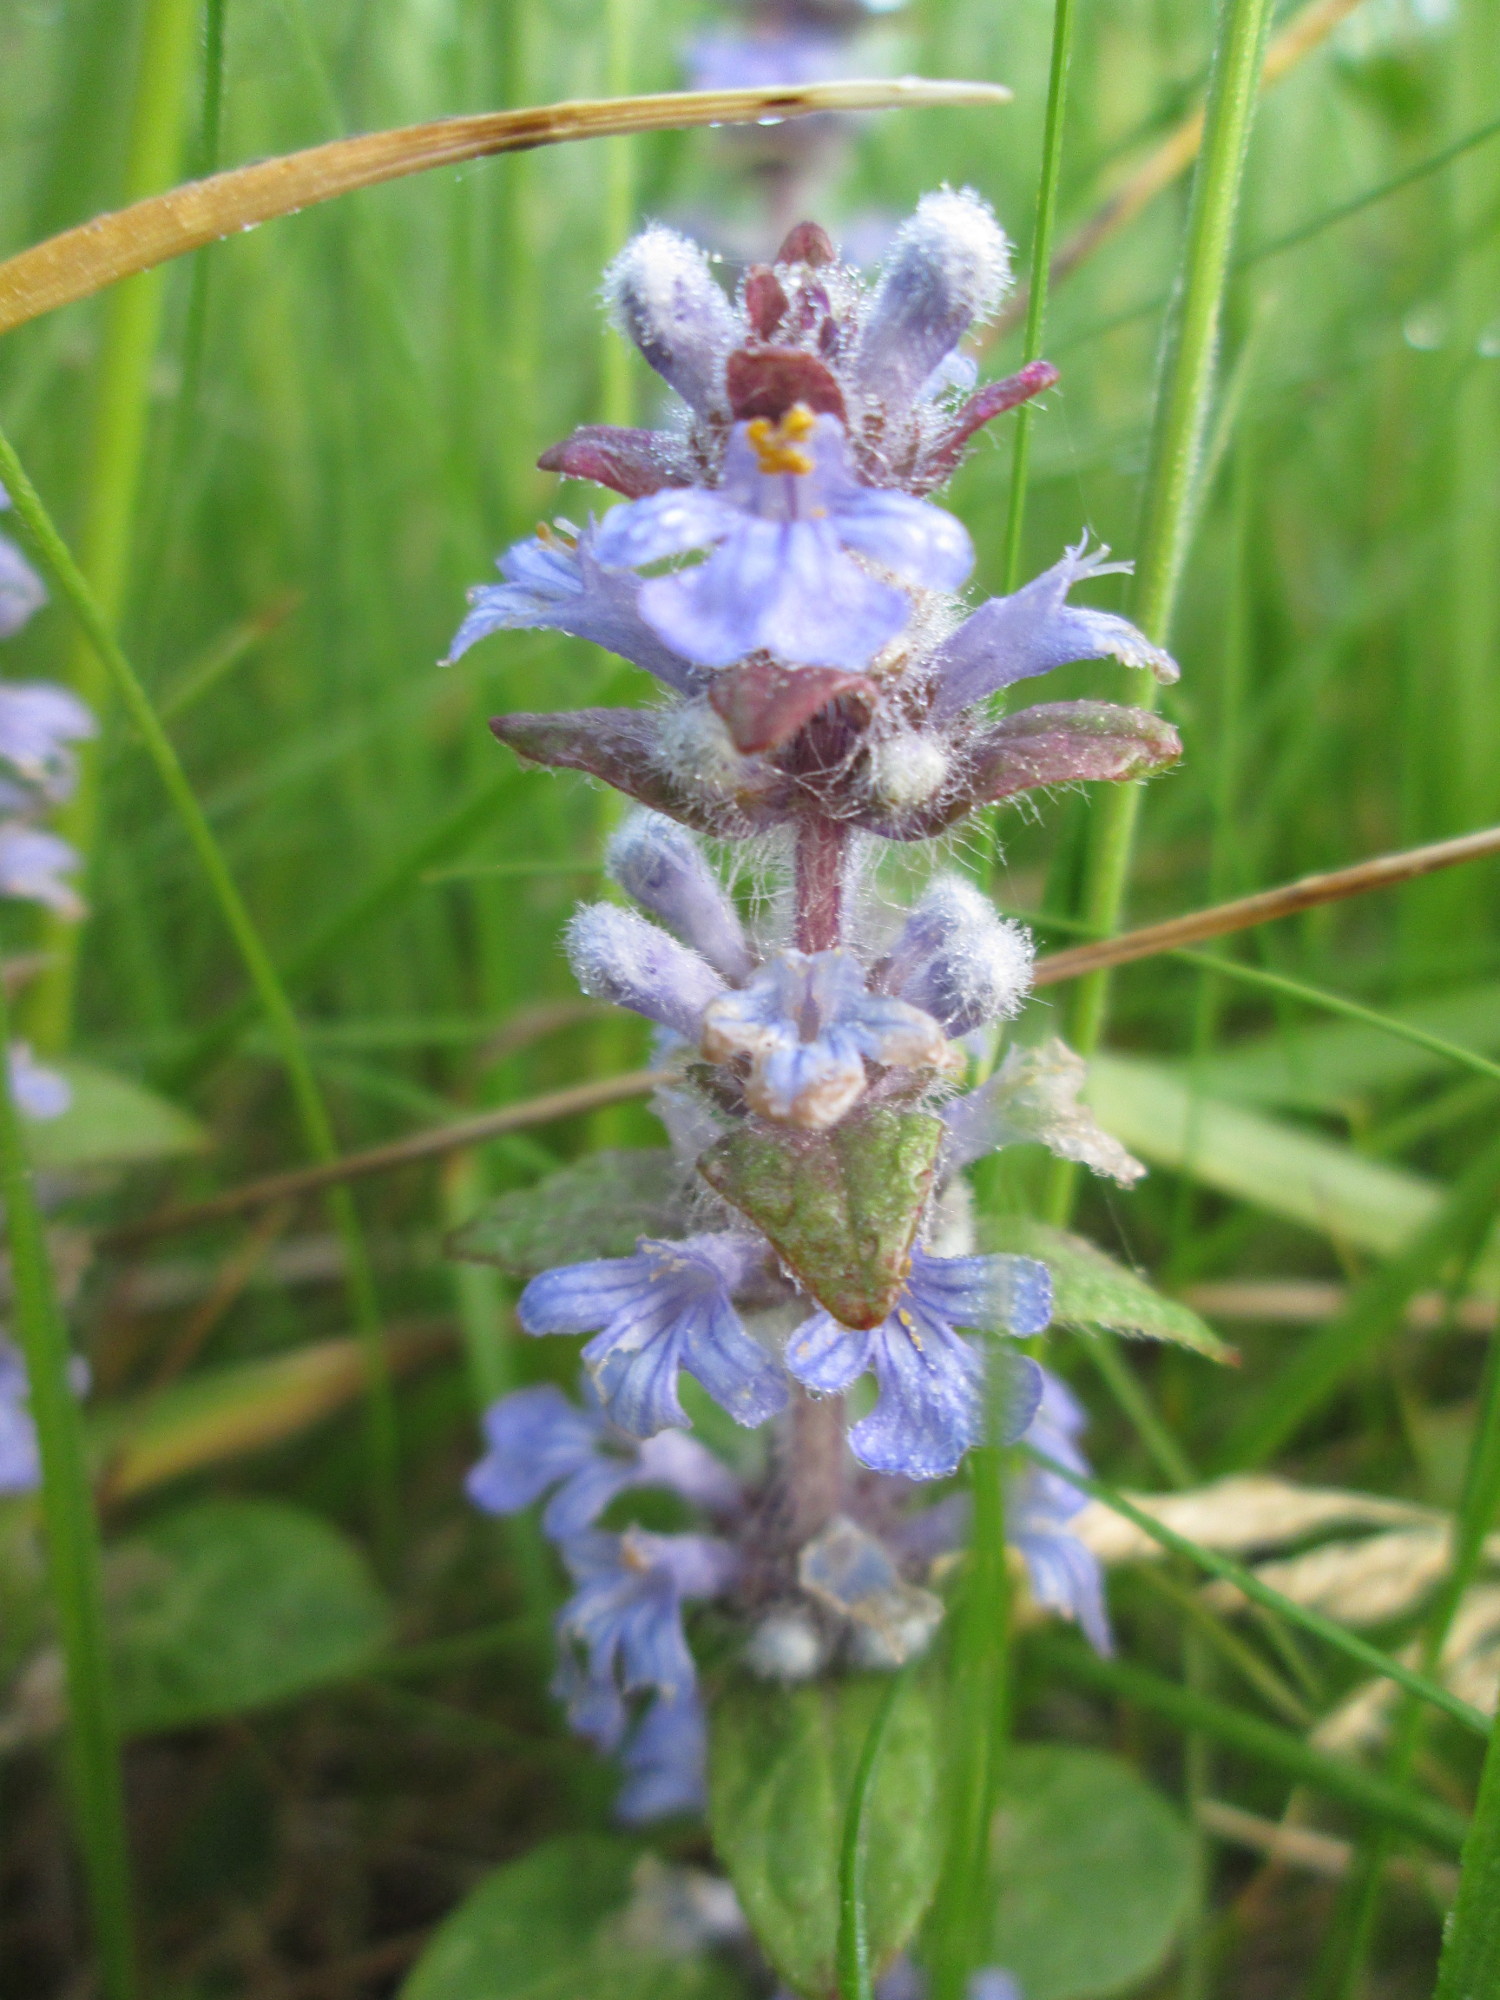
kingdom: Plantae
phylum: Tracheophyta
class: Magnoliopsida
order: Lamiales
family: Lamiaceae
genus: Ajuga
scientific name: Ajuga reptans
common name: Bugle
